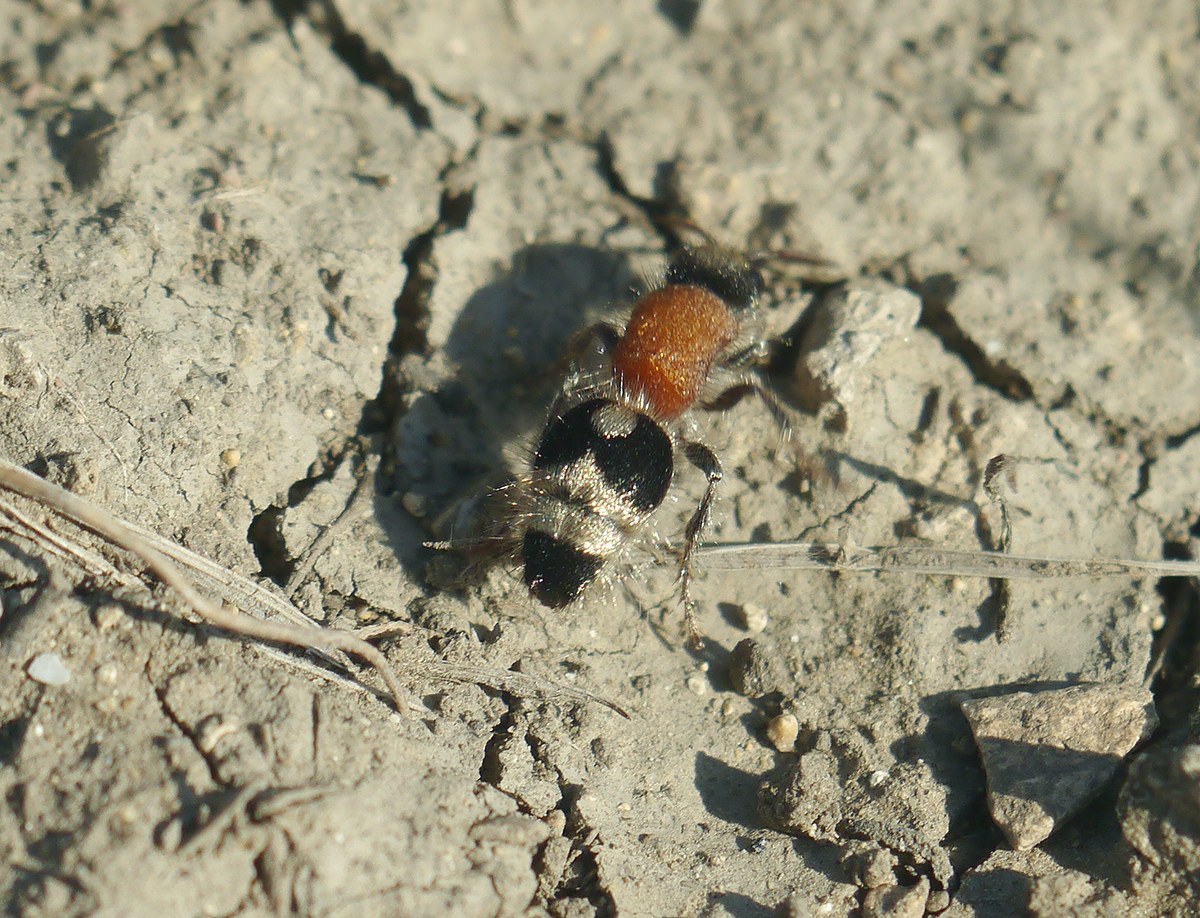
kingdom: Animalia
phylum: Arthropoda
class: Insecta
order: Hymenoptera
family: Mutillidae
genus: Nemka
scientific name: Nemka viduata
